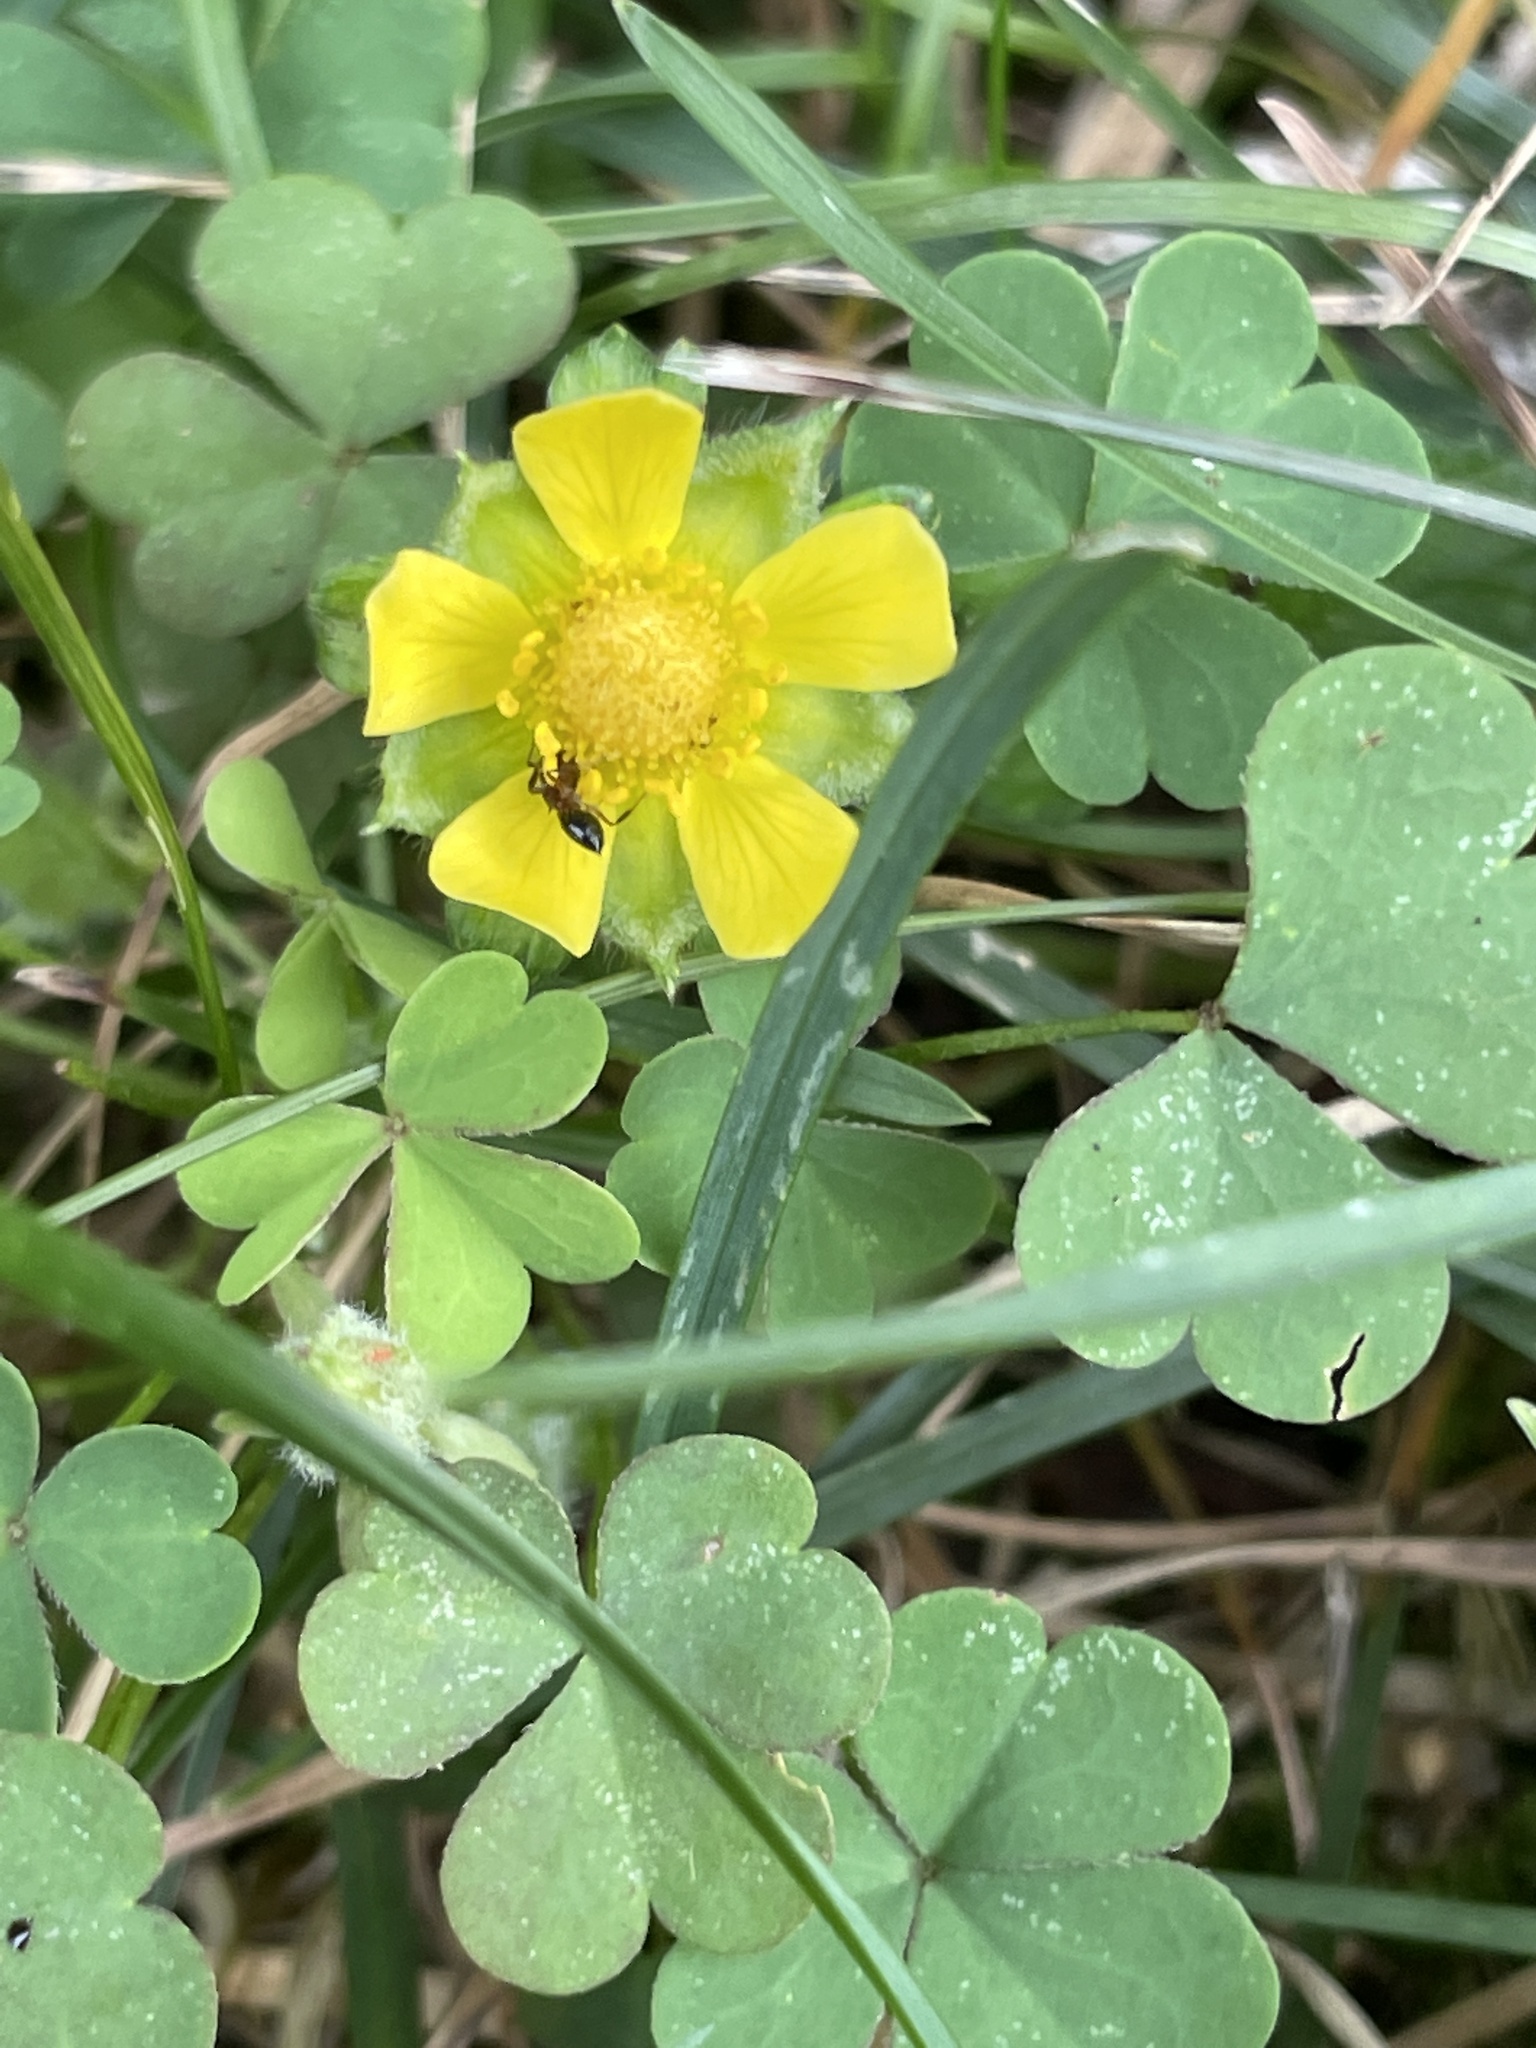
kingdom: Plantae
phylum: Tracheophyta
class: Magnoliopsida
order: Rosales
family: Rosaceae
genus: Potentilla
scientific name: Potentilla indica
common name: Yellow-flowered strawberry
